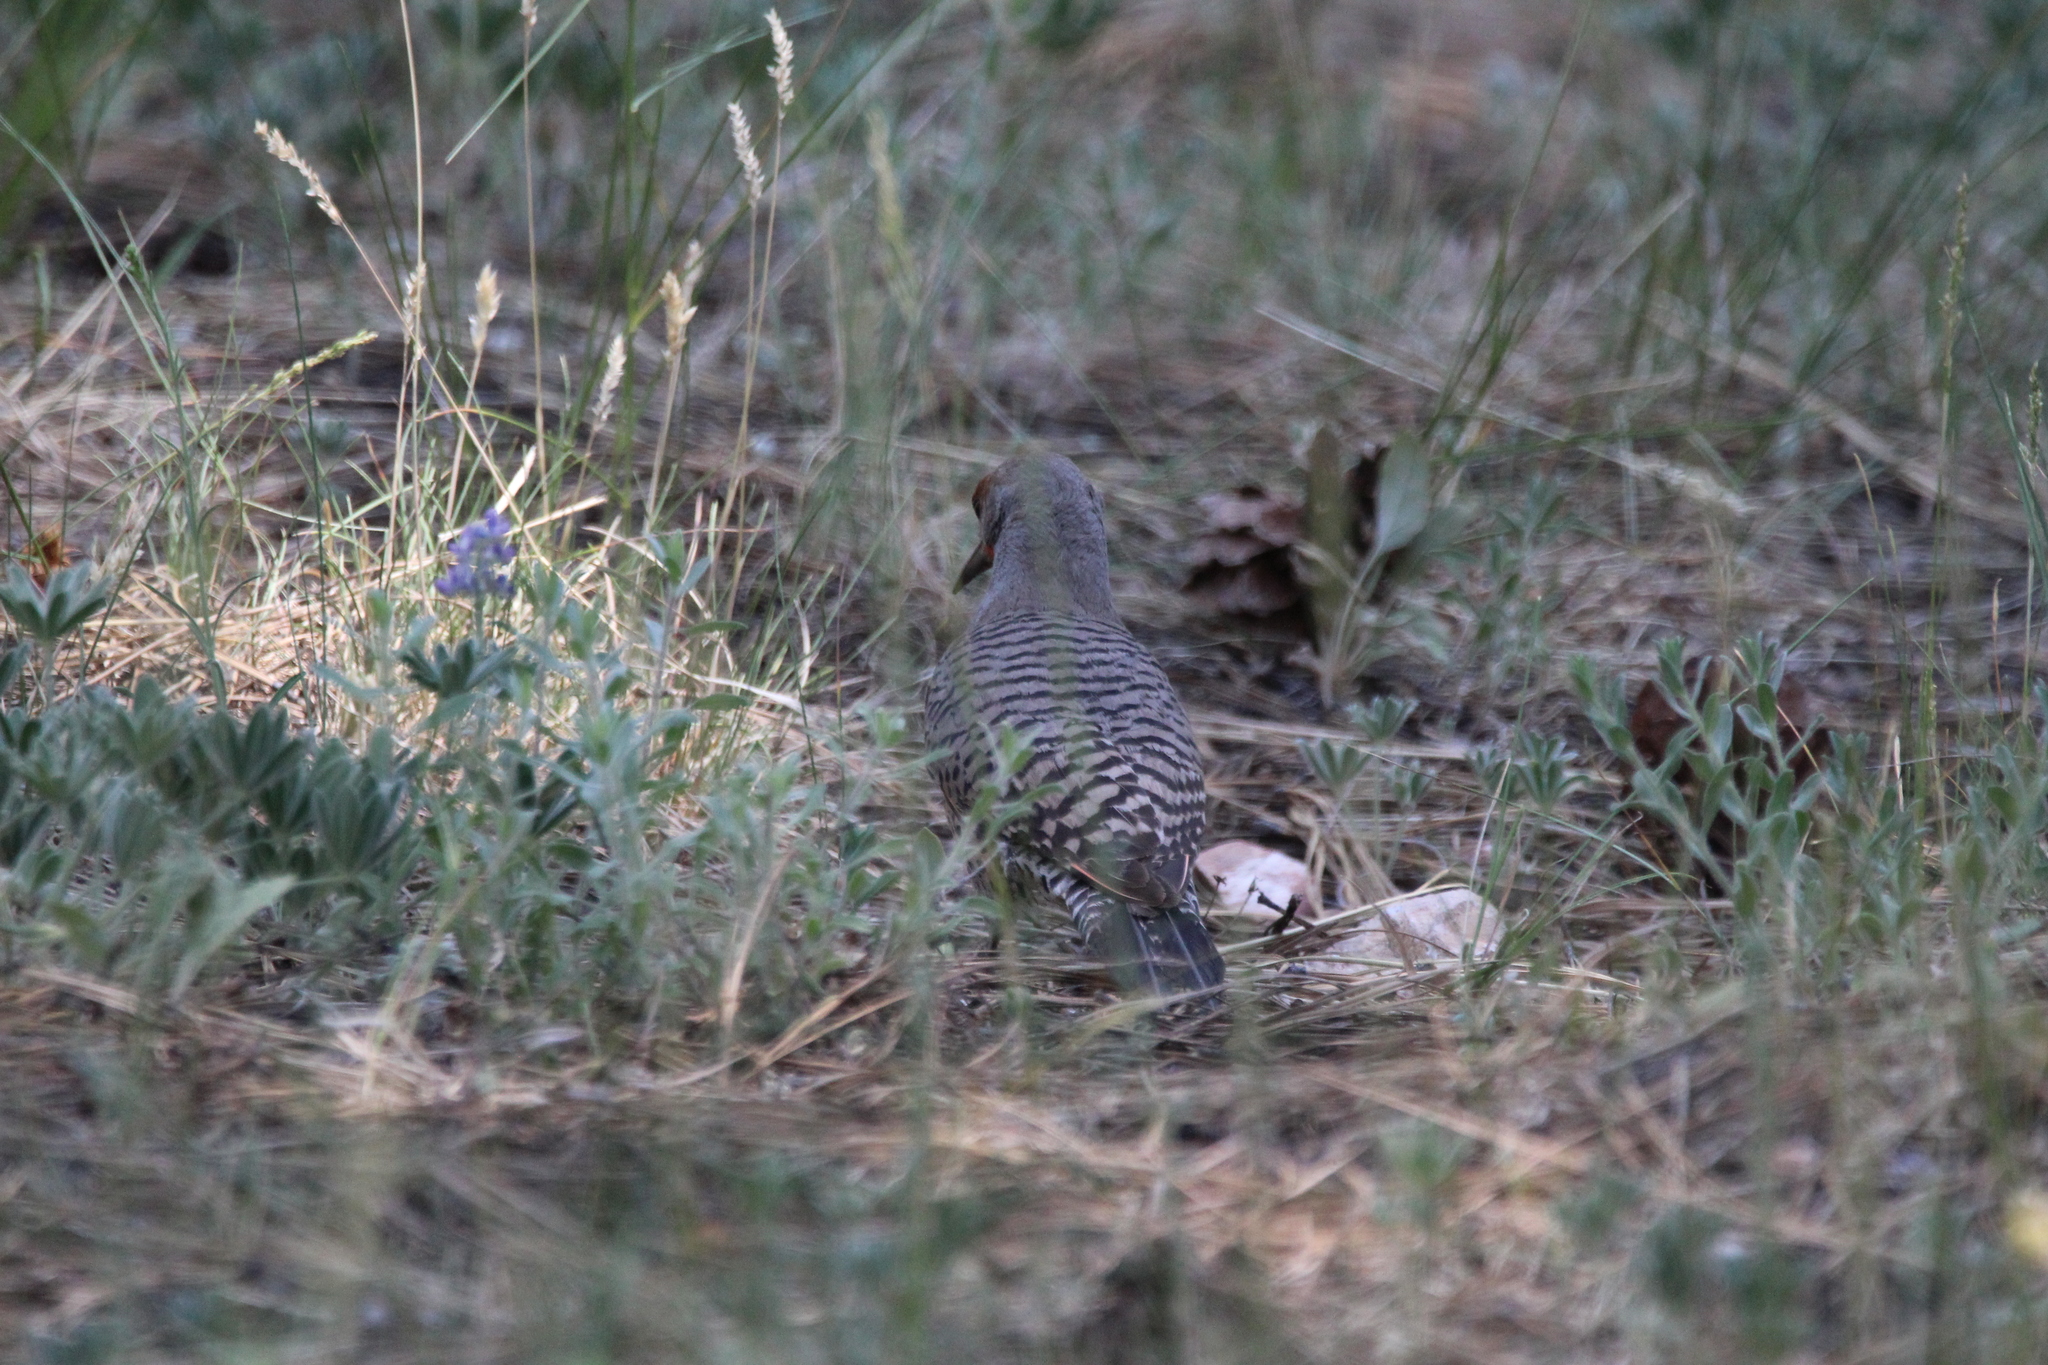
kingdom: Animalia
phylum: Chordata
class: Aves
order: Piciformes
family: Picidae
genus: Colaptes
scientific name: Colaptes auratus
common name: Northern flicker
